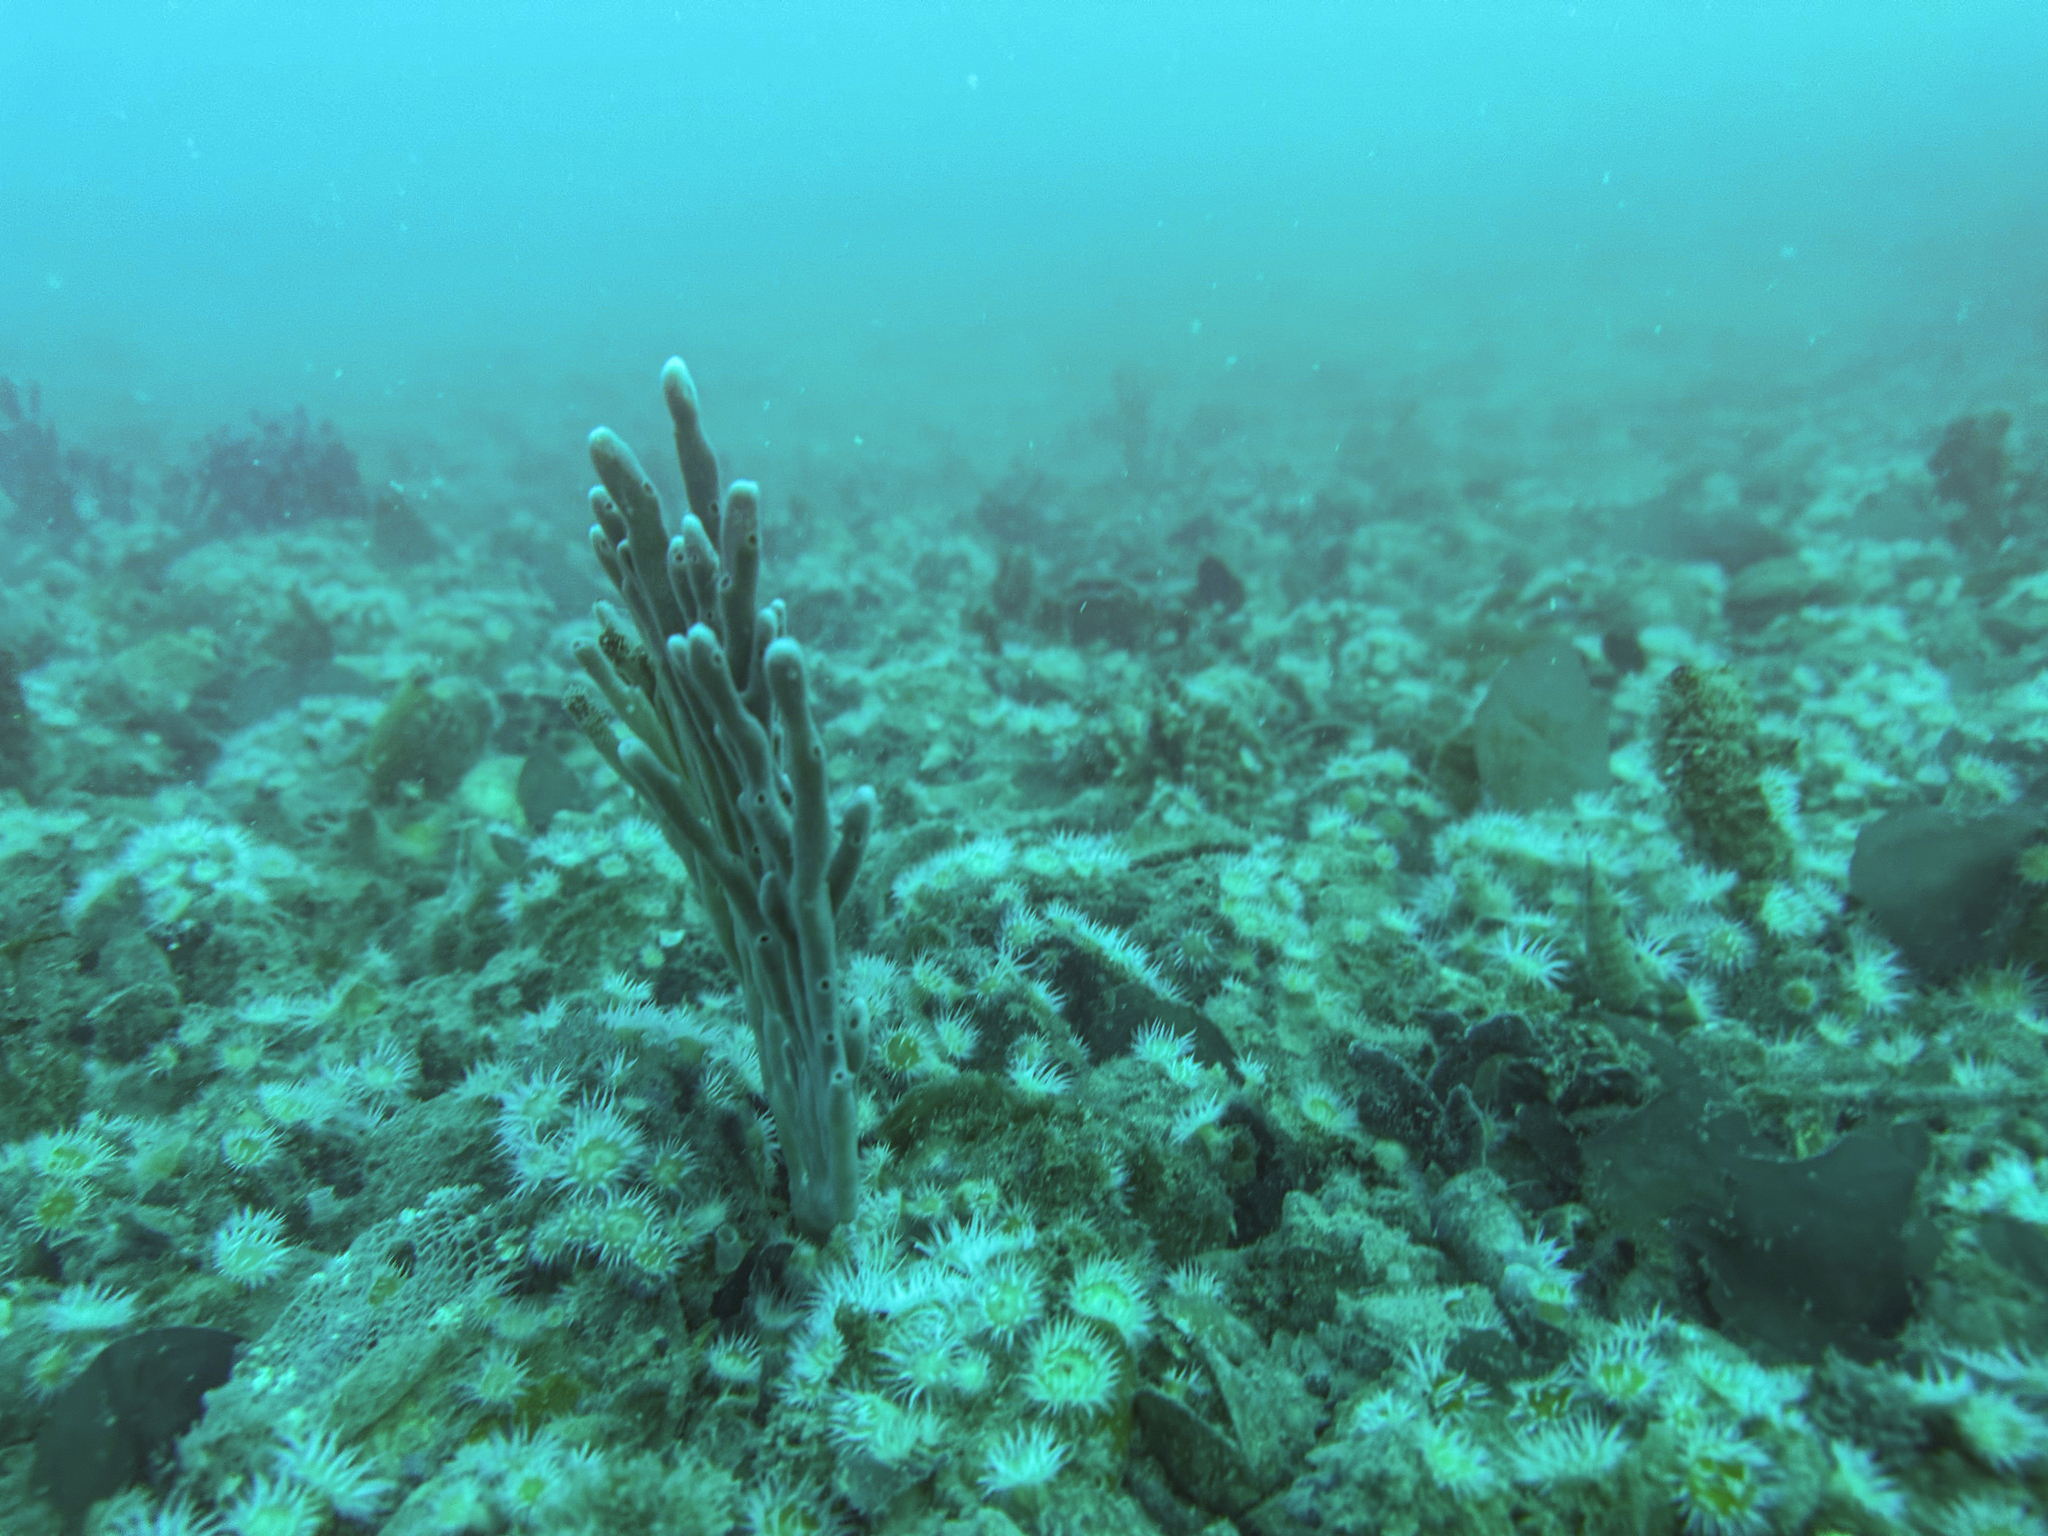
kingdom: Animalia
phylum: Cnidaria
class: Anthozoa
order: Actiniaria
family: Sagartiidae
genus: Anthothoe
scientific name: Anthothoe albocincta
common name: Orange striped anemone
